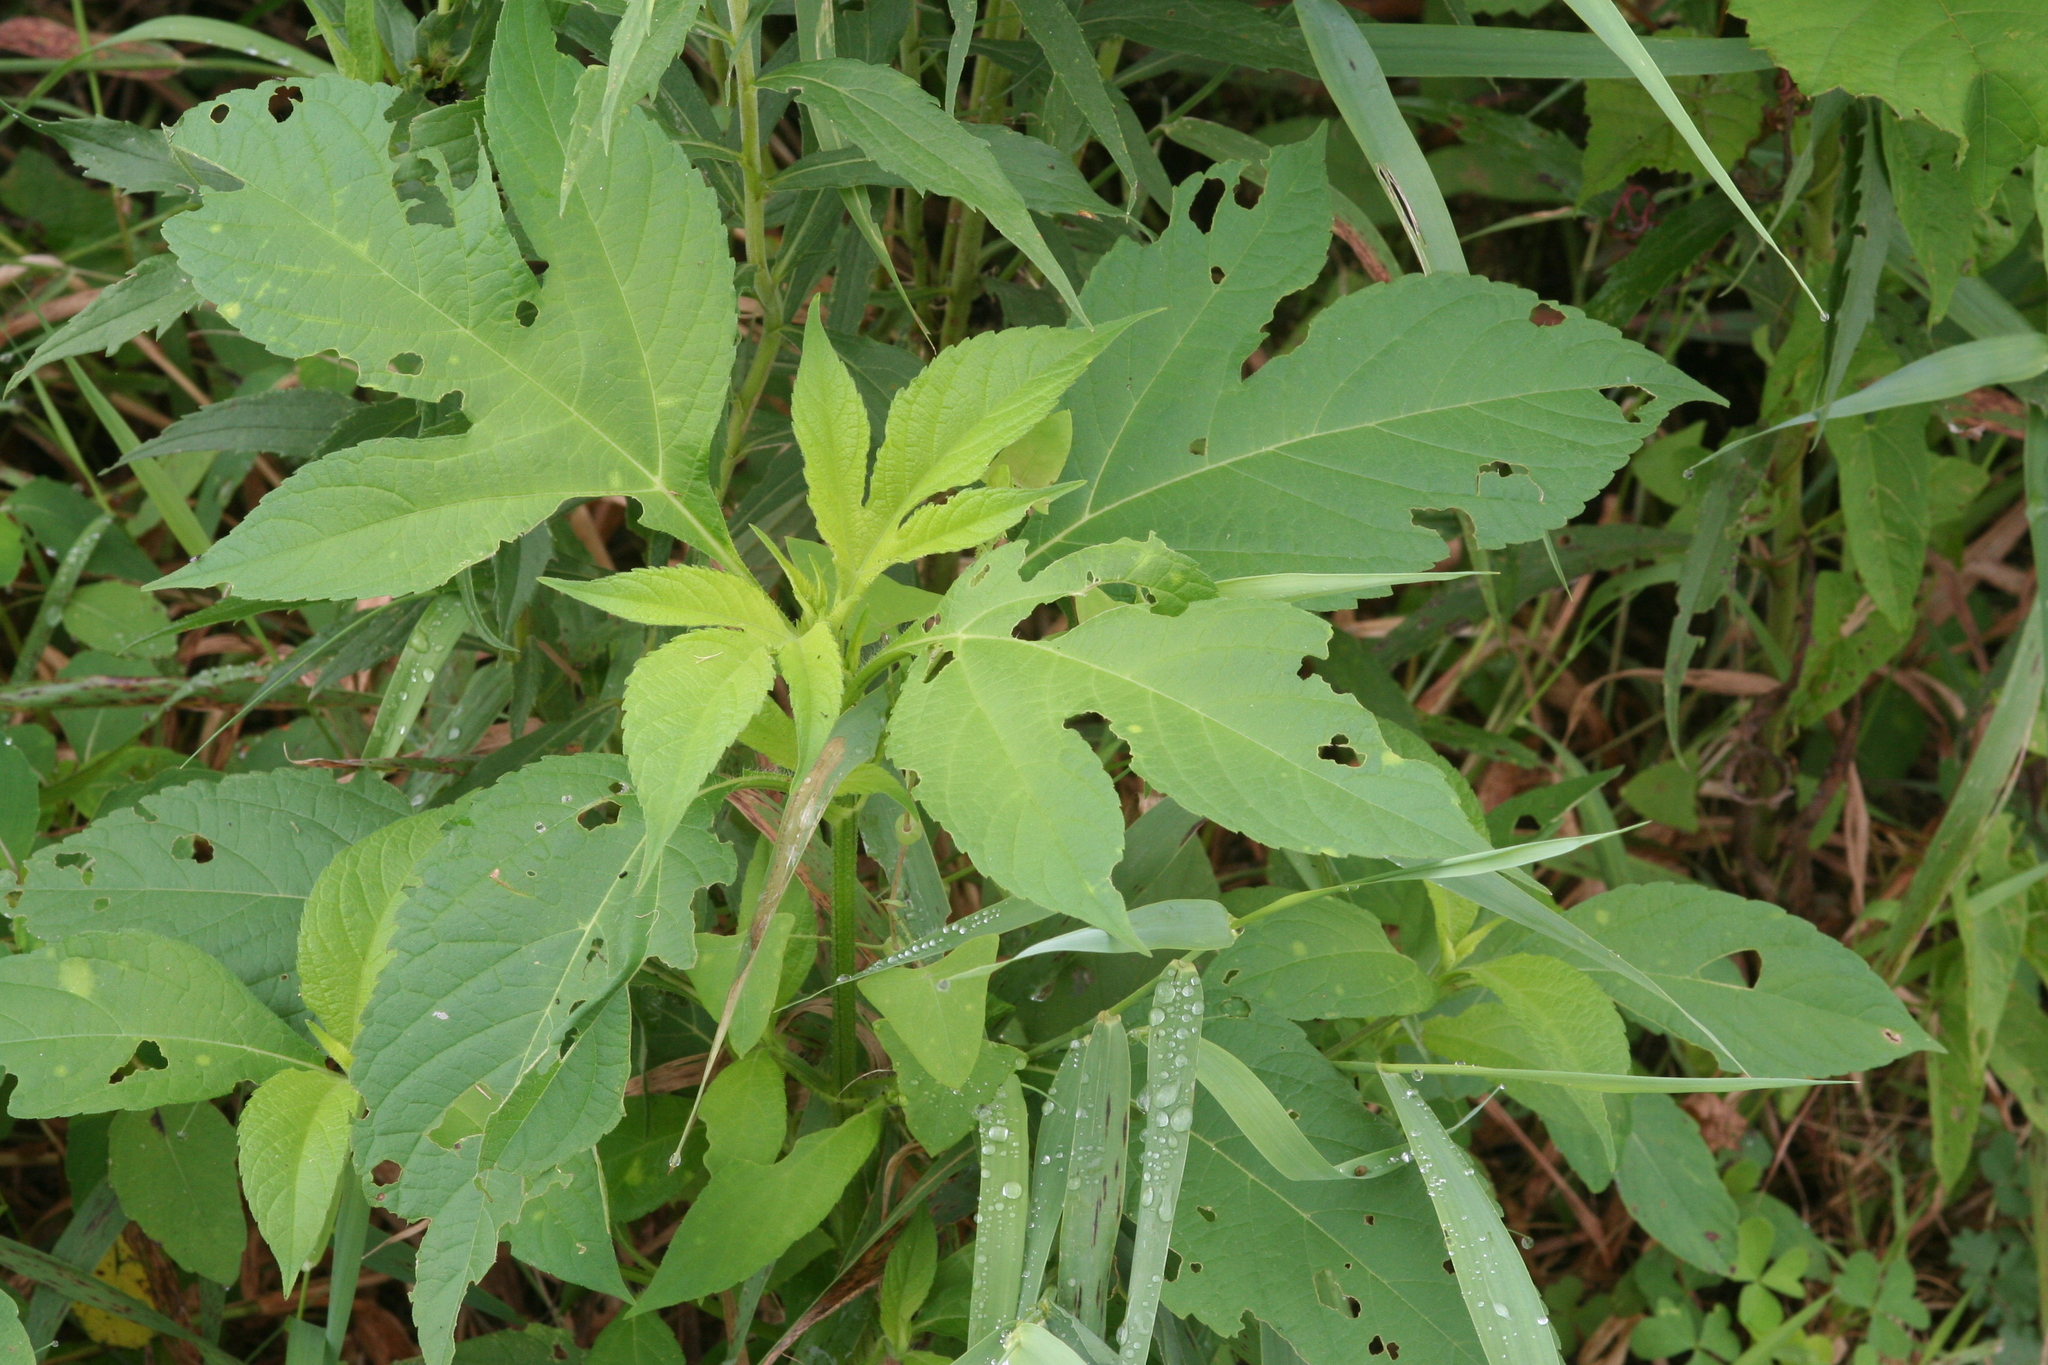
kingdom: Plantae
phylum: Tracheophyta
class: Magnoliopsida
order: Asterales
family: Asteraceae
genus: Ambrosia
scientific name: Ambrosia trifida
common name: Giant ragweed
